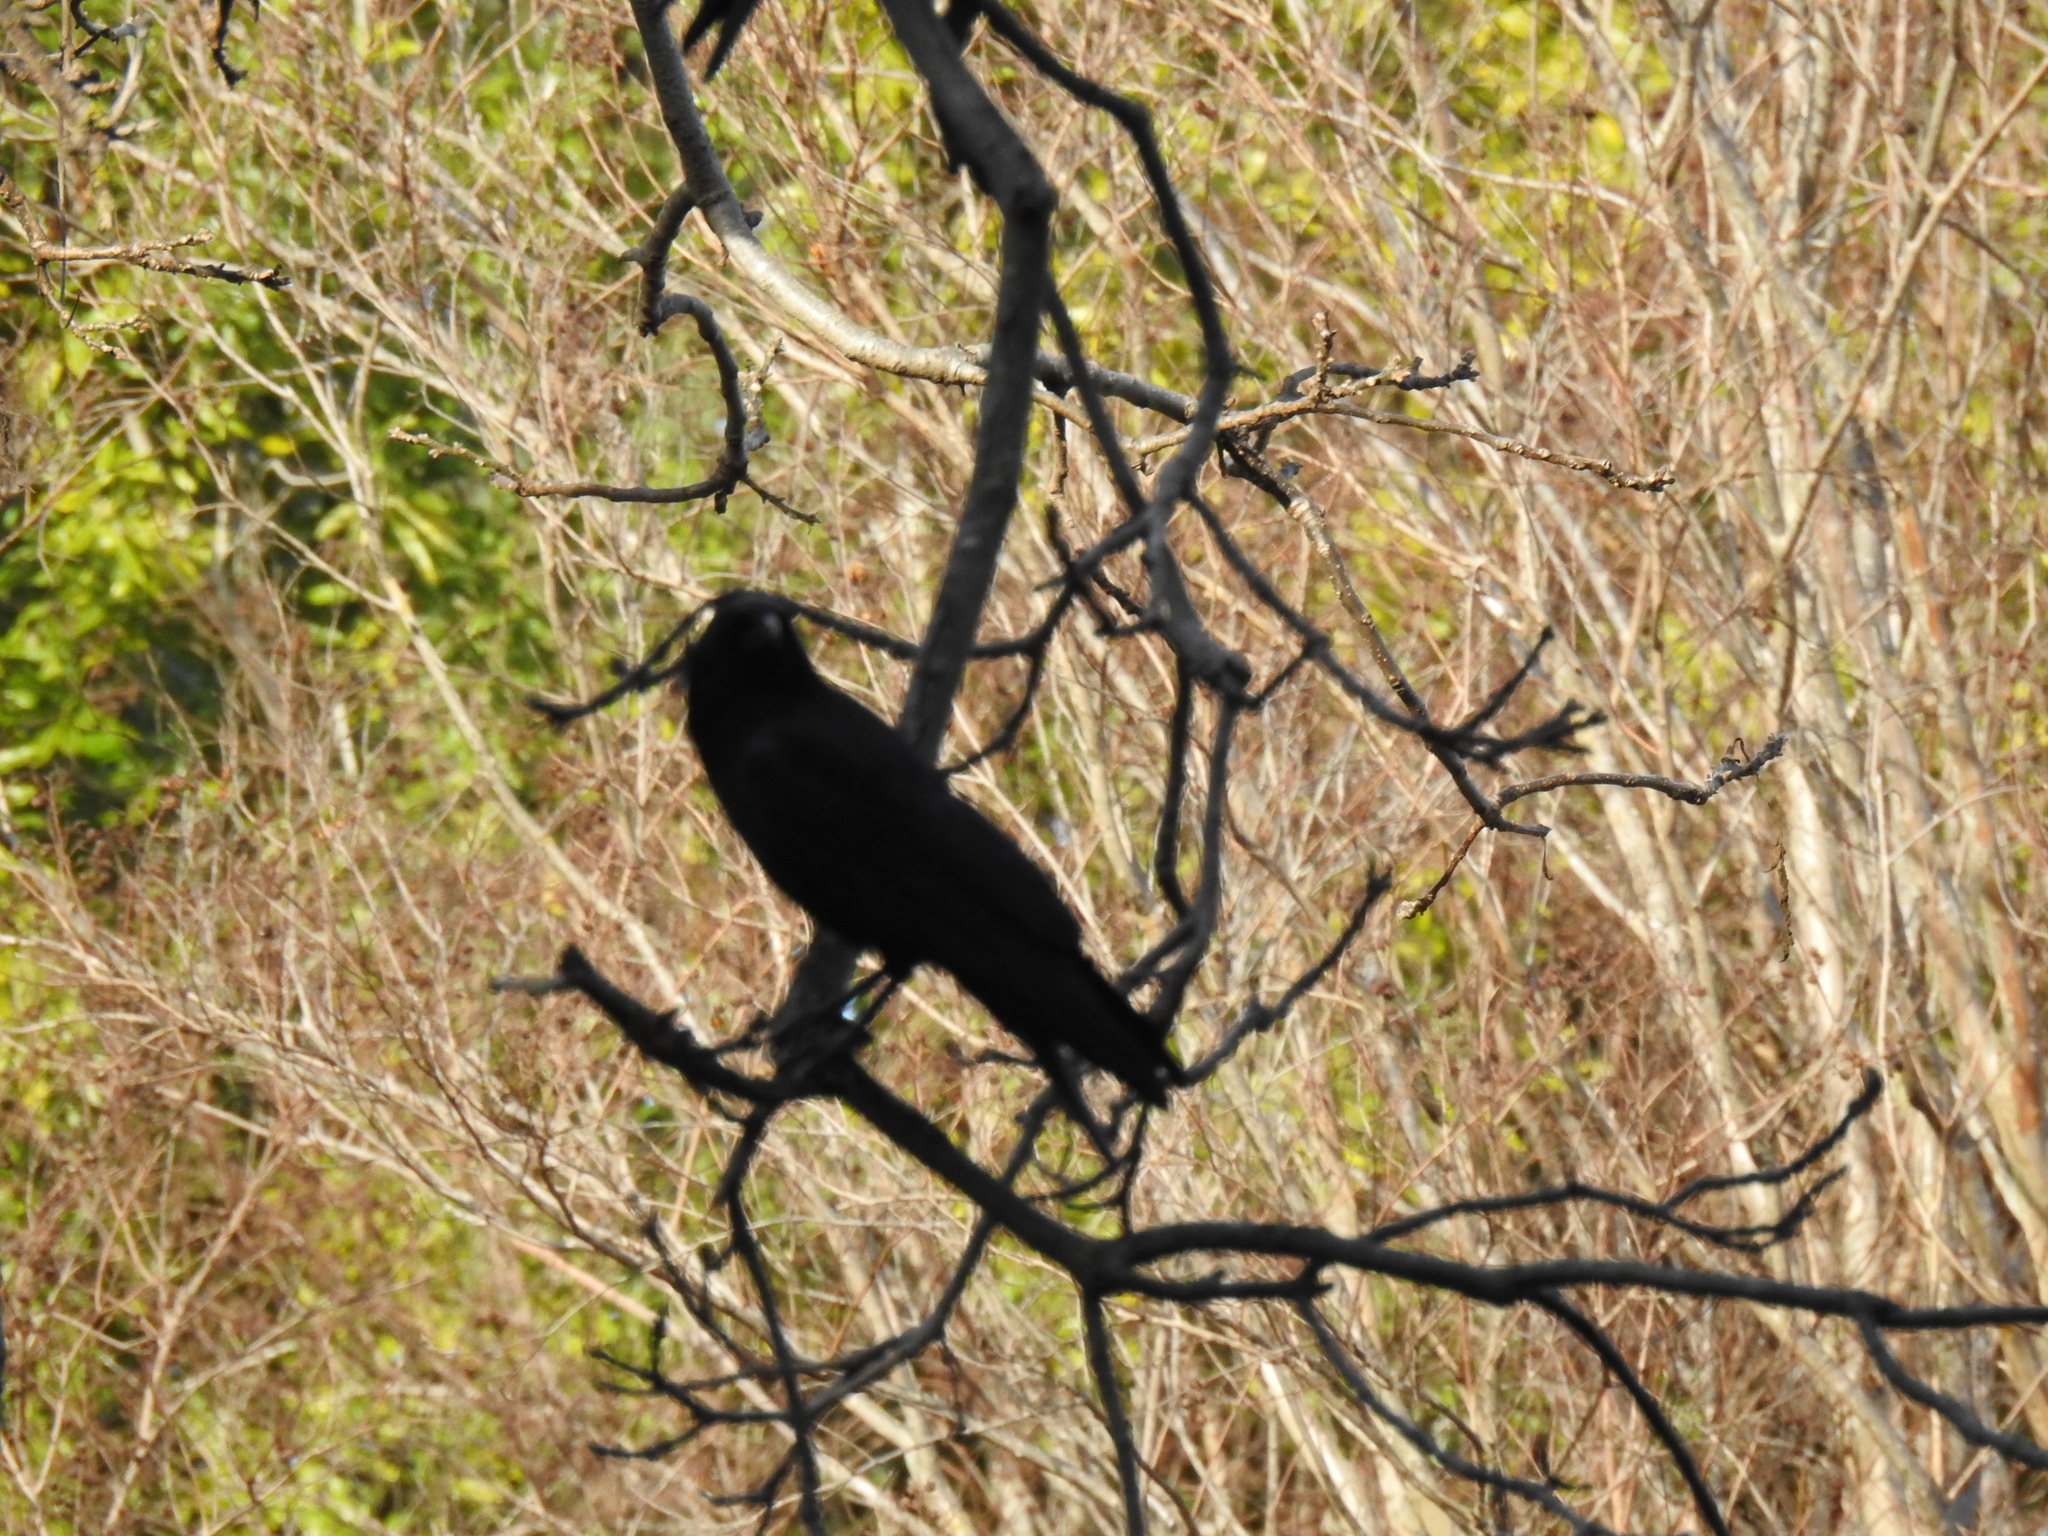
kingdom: Animalia
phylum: Chordata
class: Aves
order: Passeriformes
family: Corvidae
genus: Corvus
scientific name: Corvus brachyrhynchos
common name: American crow
